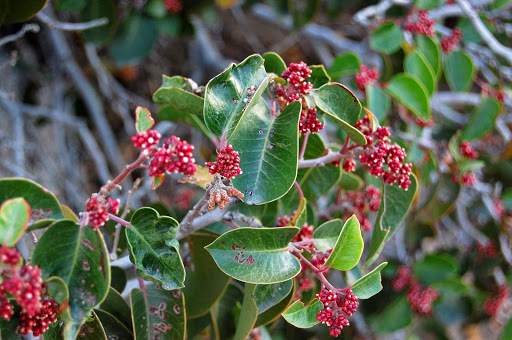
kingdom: Plantae
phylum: Tracheophyta
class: Magnoliopsida
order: Sapindales
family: Anacardiaceae
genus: Rhus
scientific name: Rhus ovata
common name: Sugar sumac
